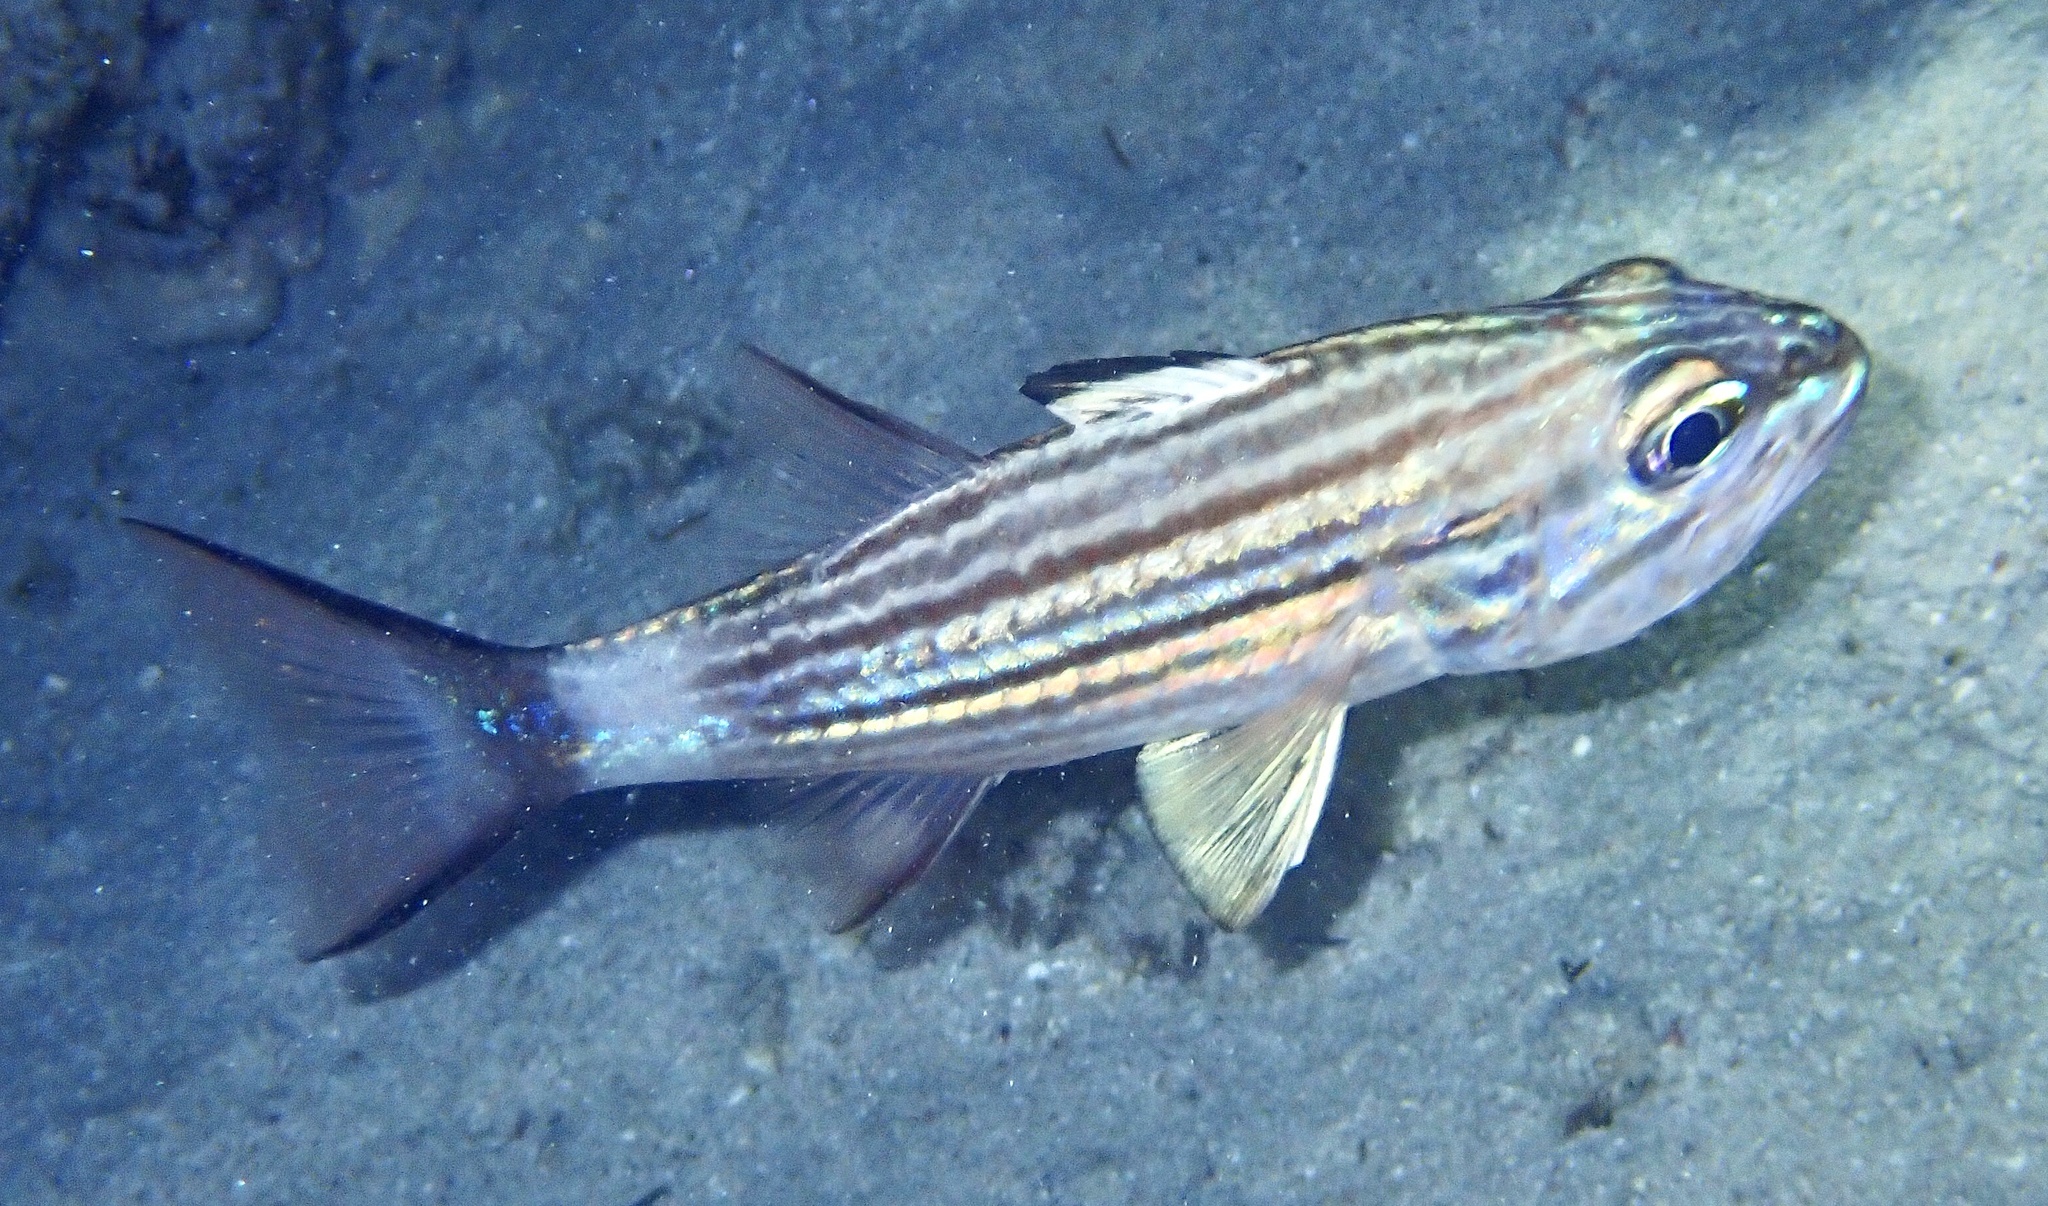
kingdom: Animalia
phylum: Chordata
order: Perciformes
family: Apogonidae
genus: Cheilodipterus
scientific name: Cheilodipterus macrodon
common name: Eight-lined cardinalfish
